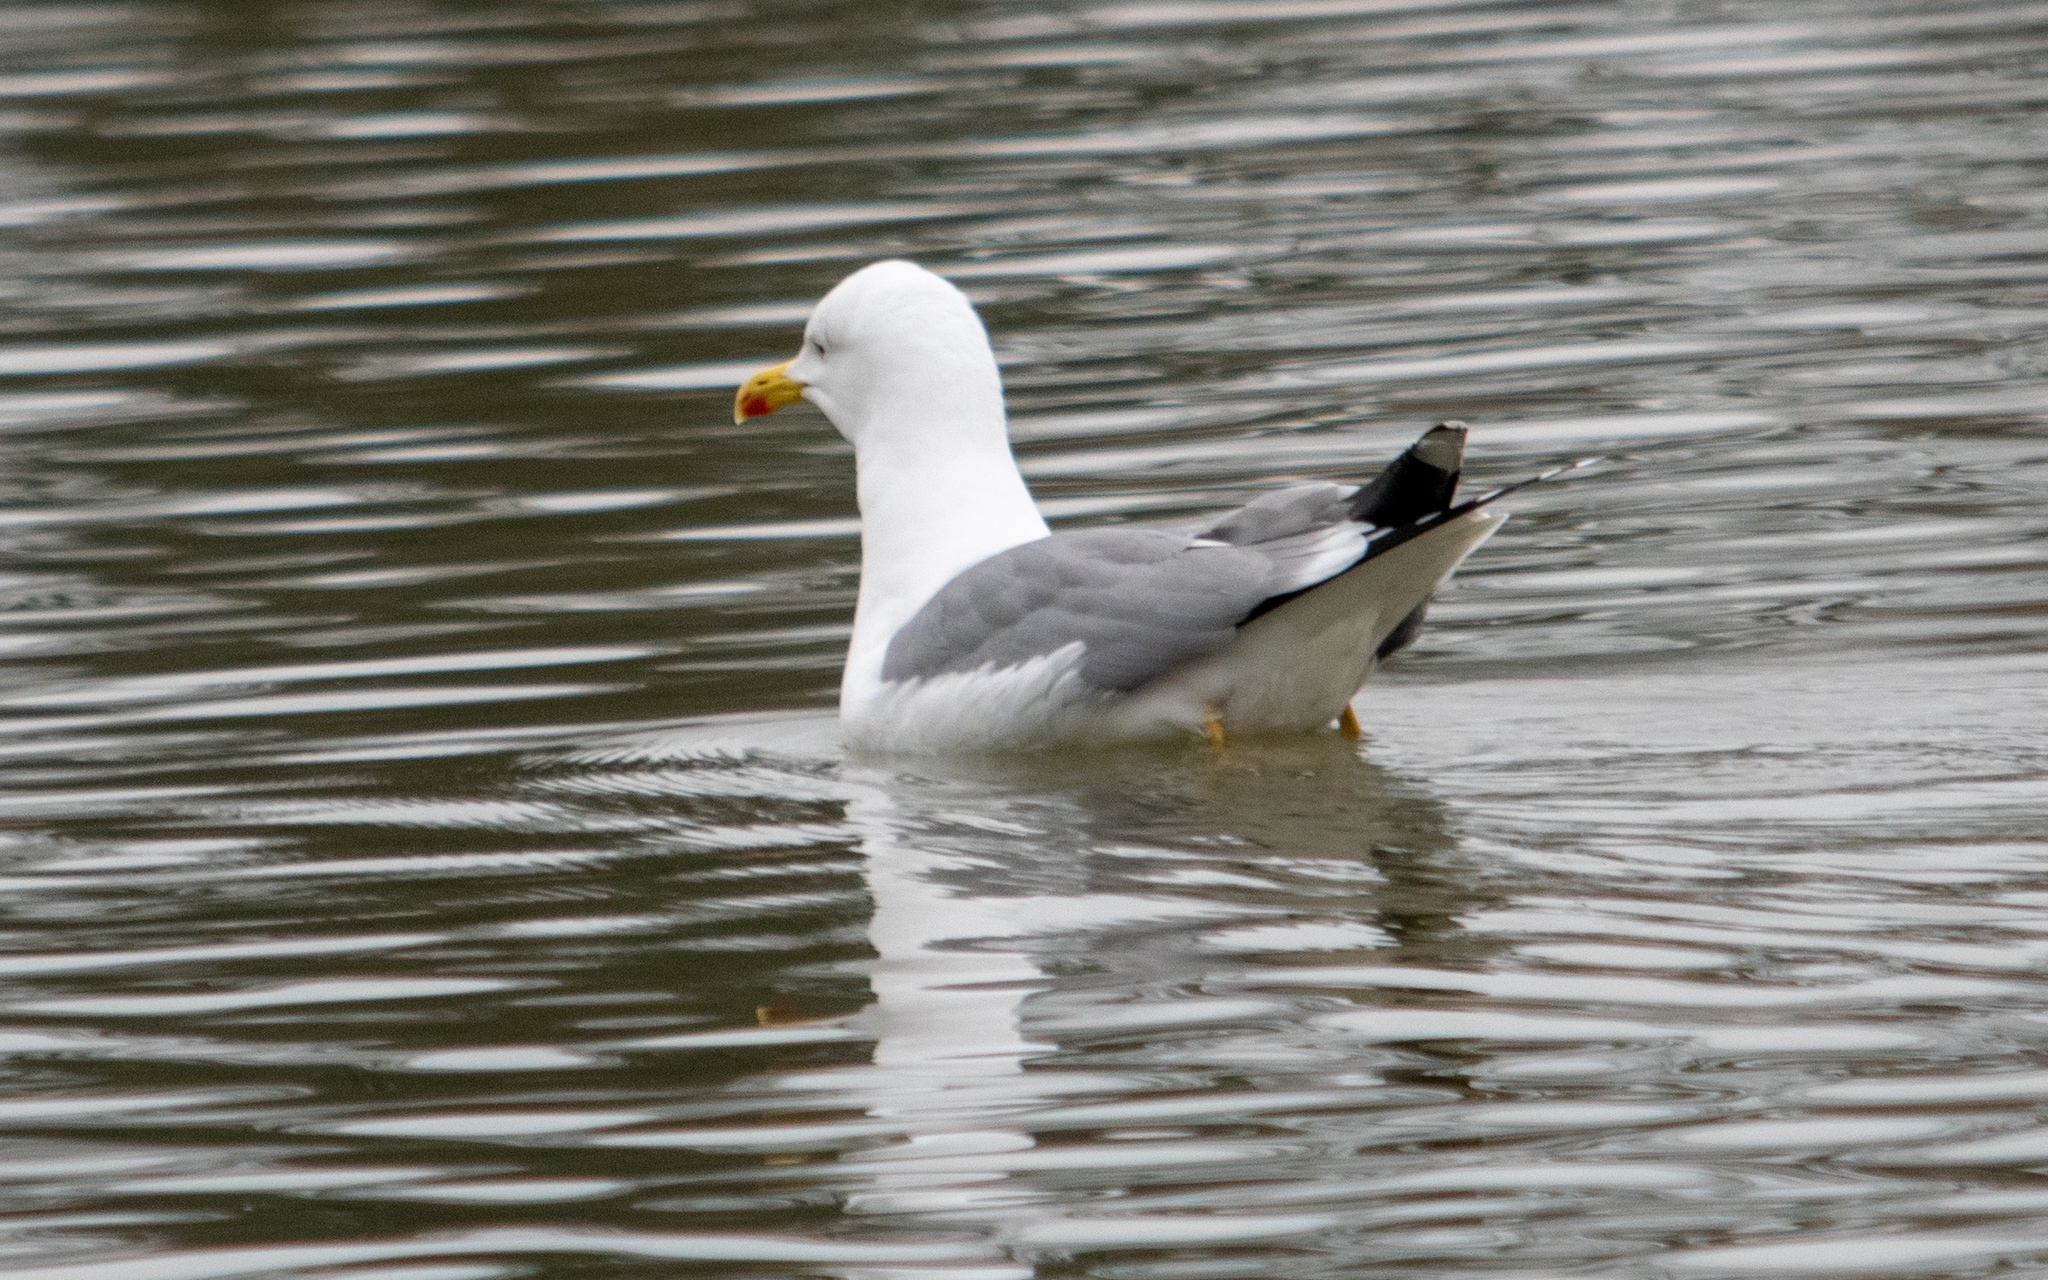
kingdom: Animalia
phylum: Chordata
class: Aves
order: Charadriiformes
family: Laridae
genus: Larus
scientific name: Larus michahellis
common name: Yellow-legged gull
